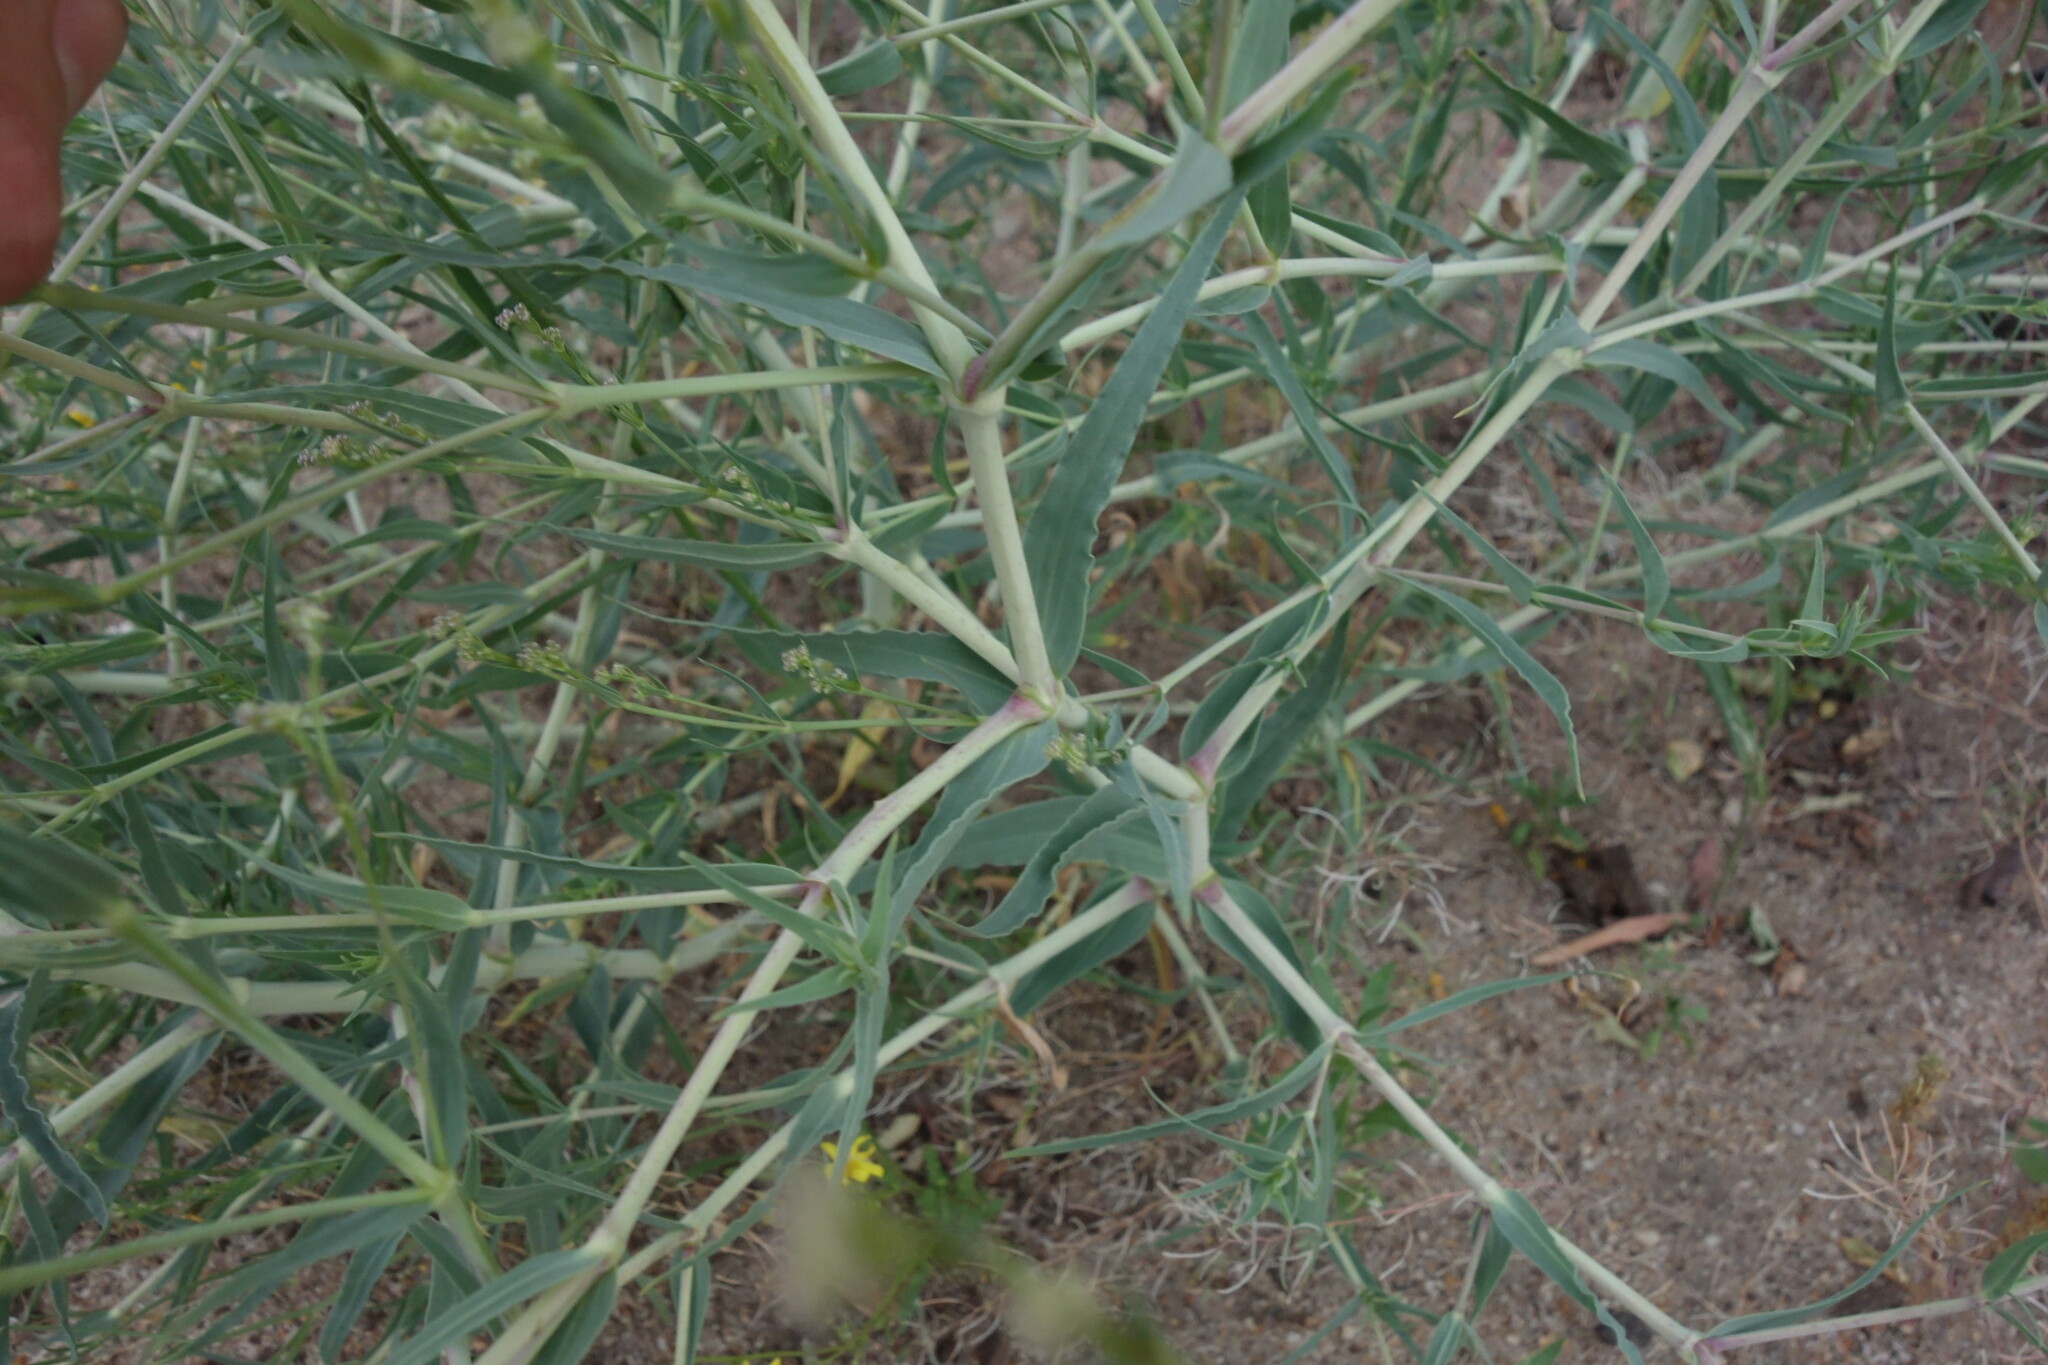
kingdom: Plantae
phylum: Tracheophyta
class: Magnoliopsida
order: Caryophyllales
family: Caryophyllaceae
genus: Gypsophila
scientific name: Gypsophila paniculata
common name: Baby's-breath
